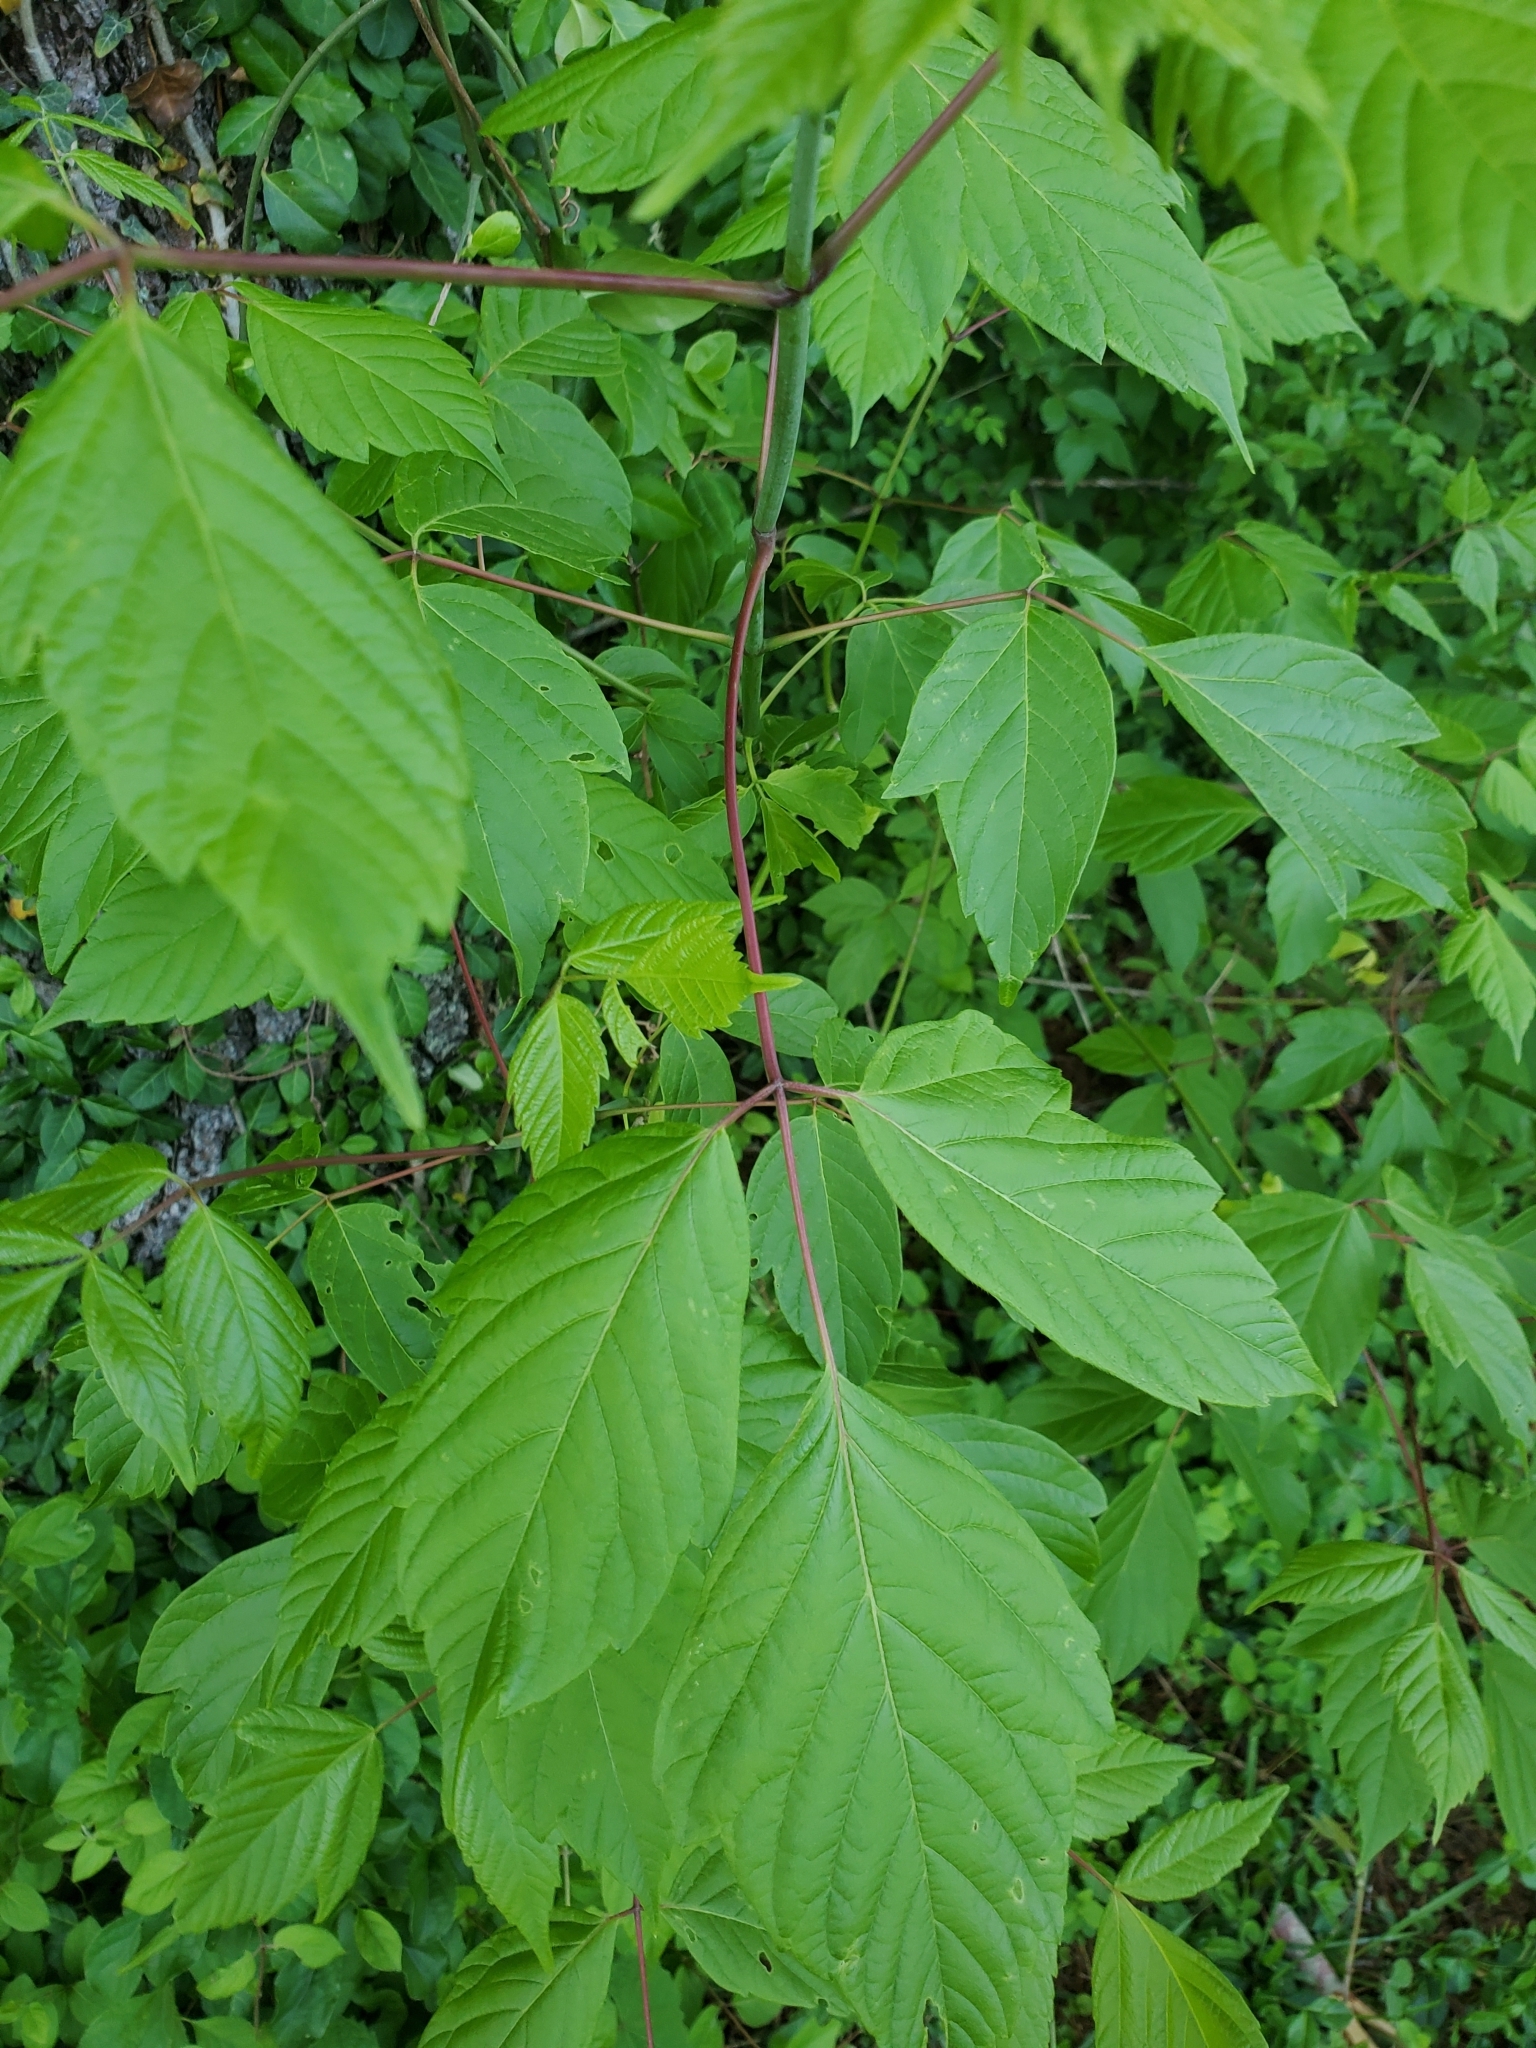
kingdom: Plantae
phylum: Tracheophyta
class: Magnoliopsida
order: Sapindales
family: Sapindaceae
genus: Acer
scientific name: Acer negundo
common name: Ashleaf maple
